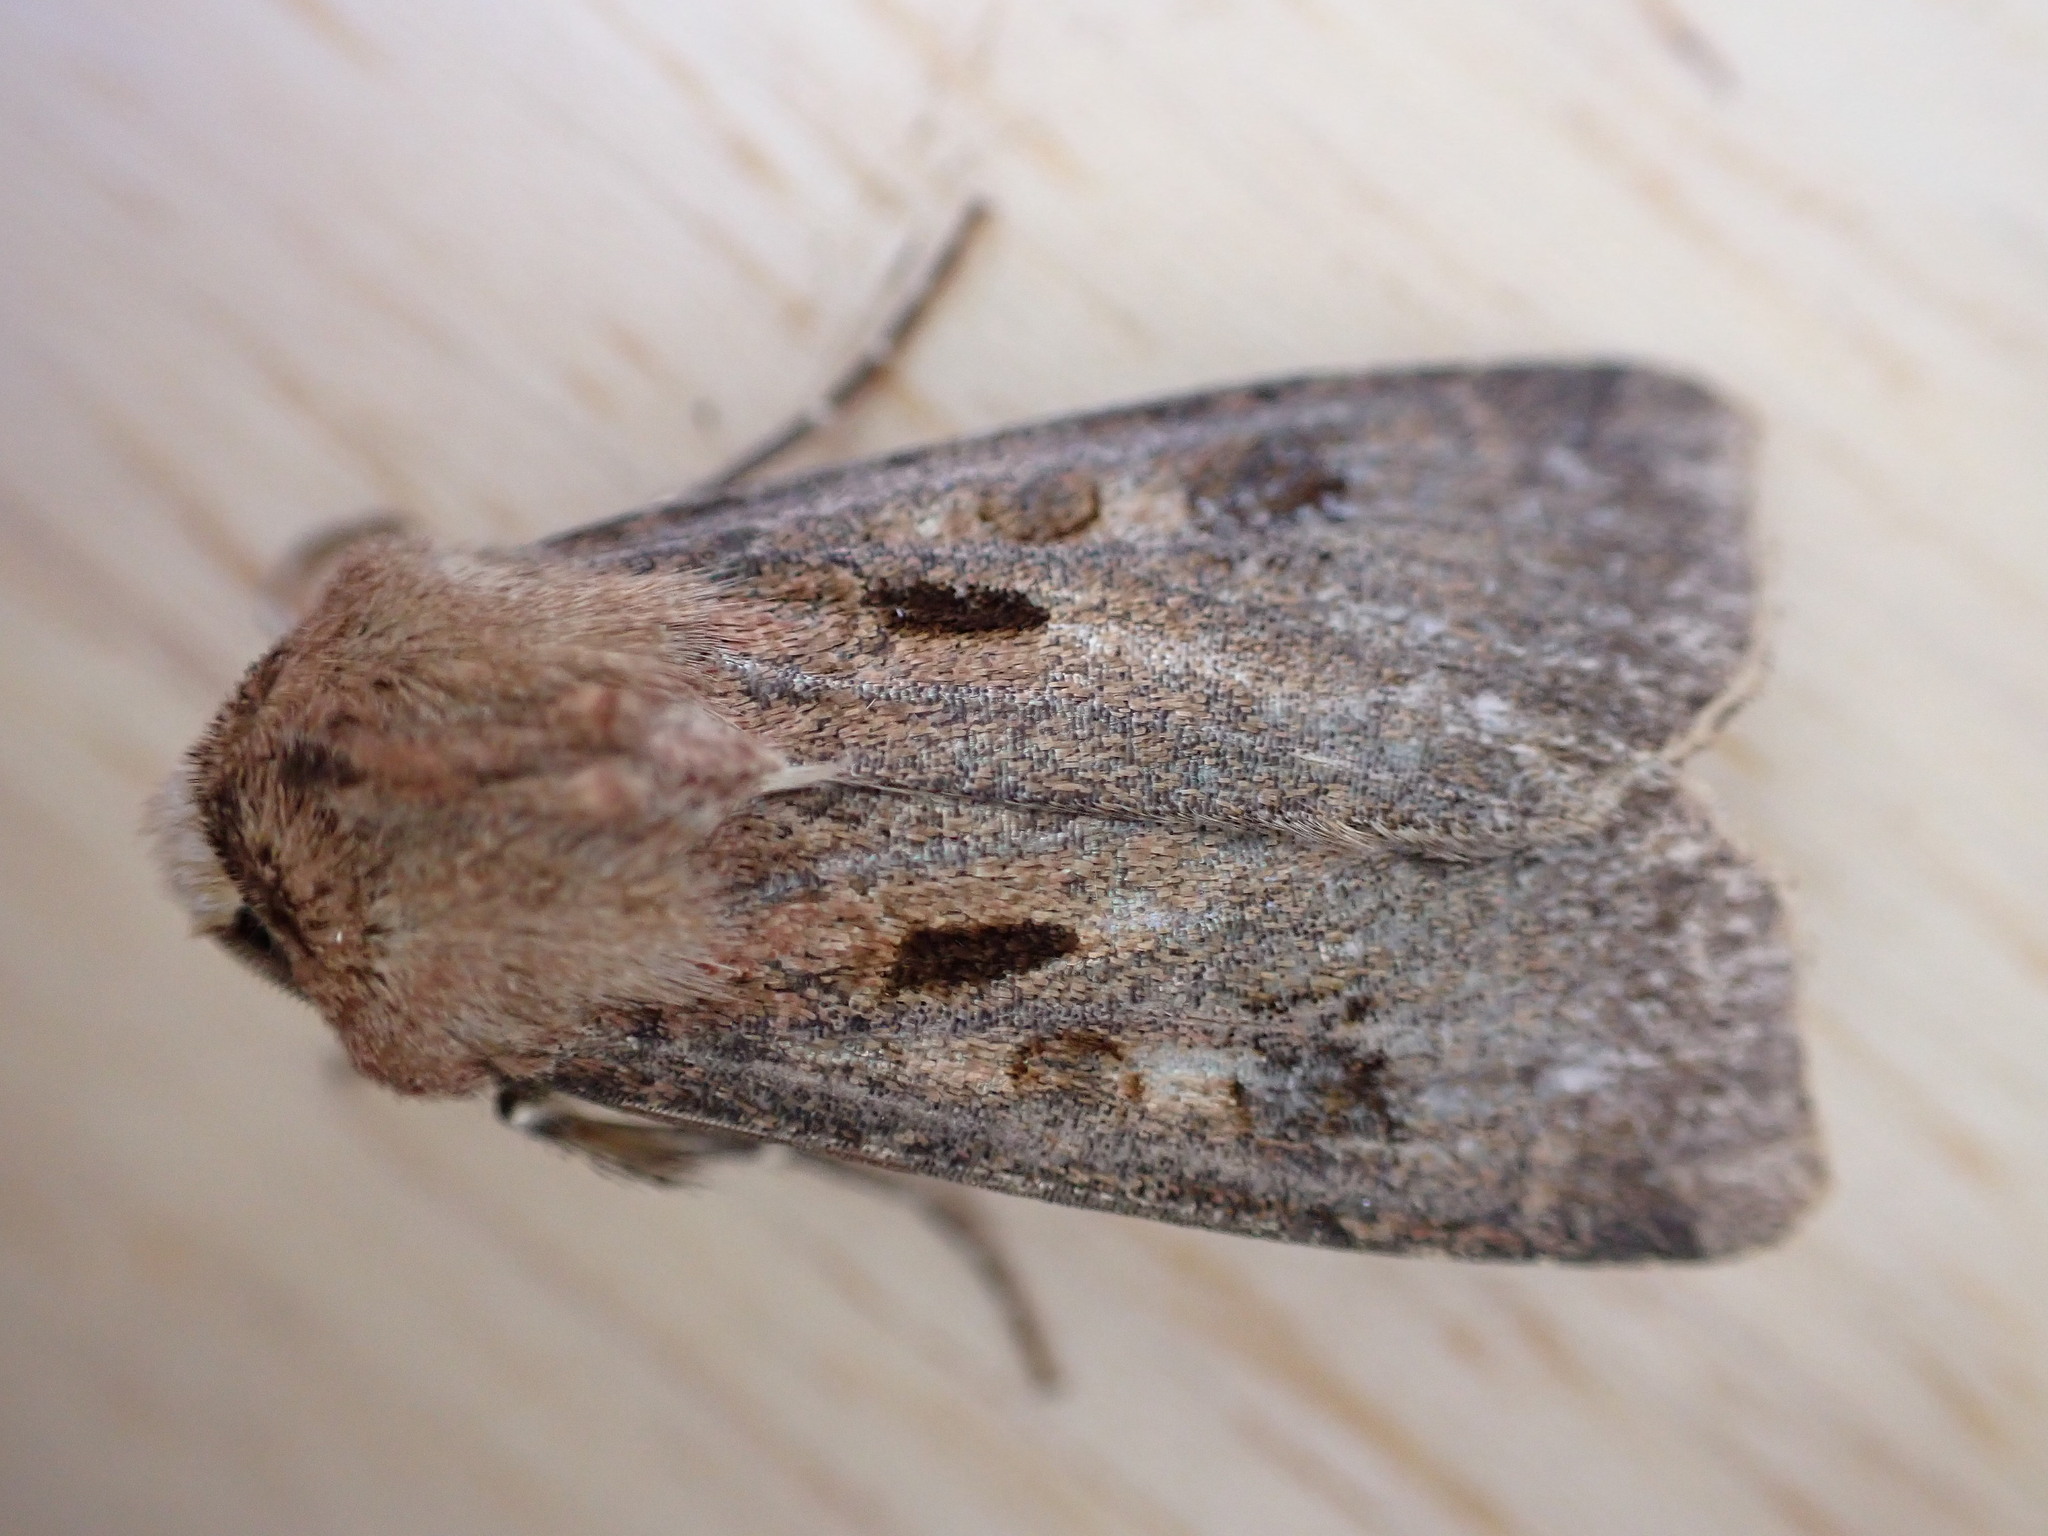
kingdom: Animalia
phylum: Arthropoda
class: Insecta
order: Lepidoptera
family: Noctuidae
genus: Agrotis
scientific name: Agrotis exclamationis
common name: Heart and dart
